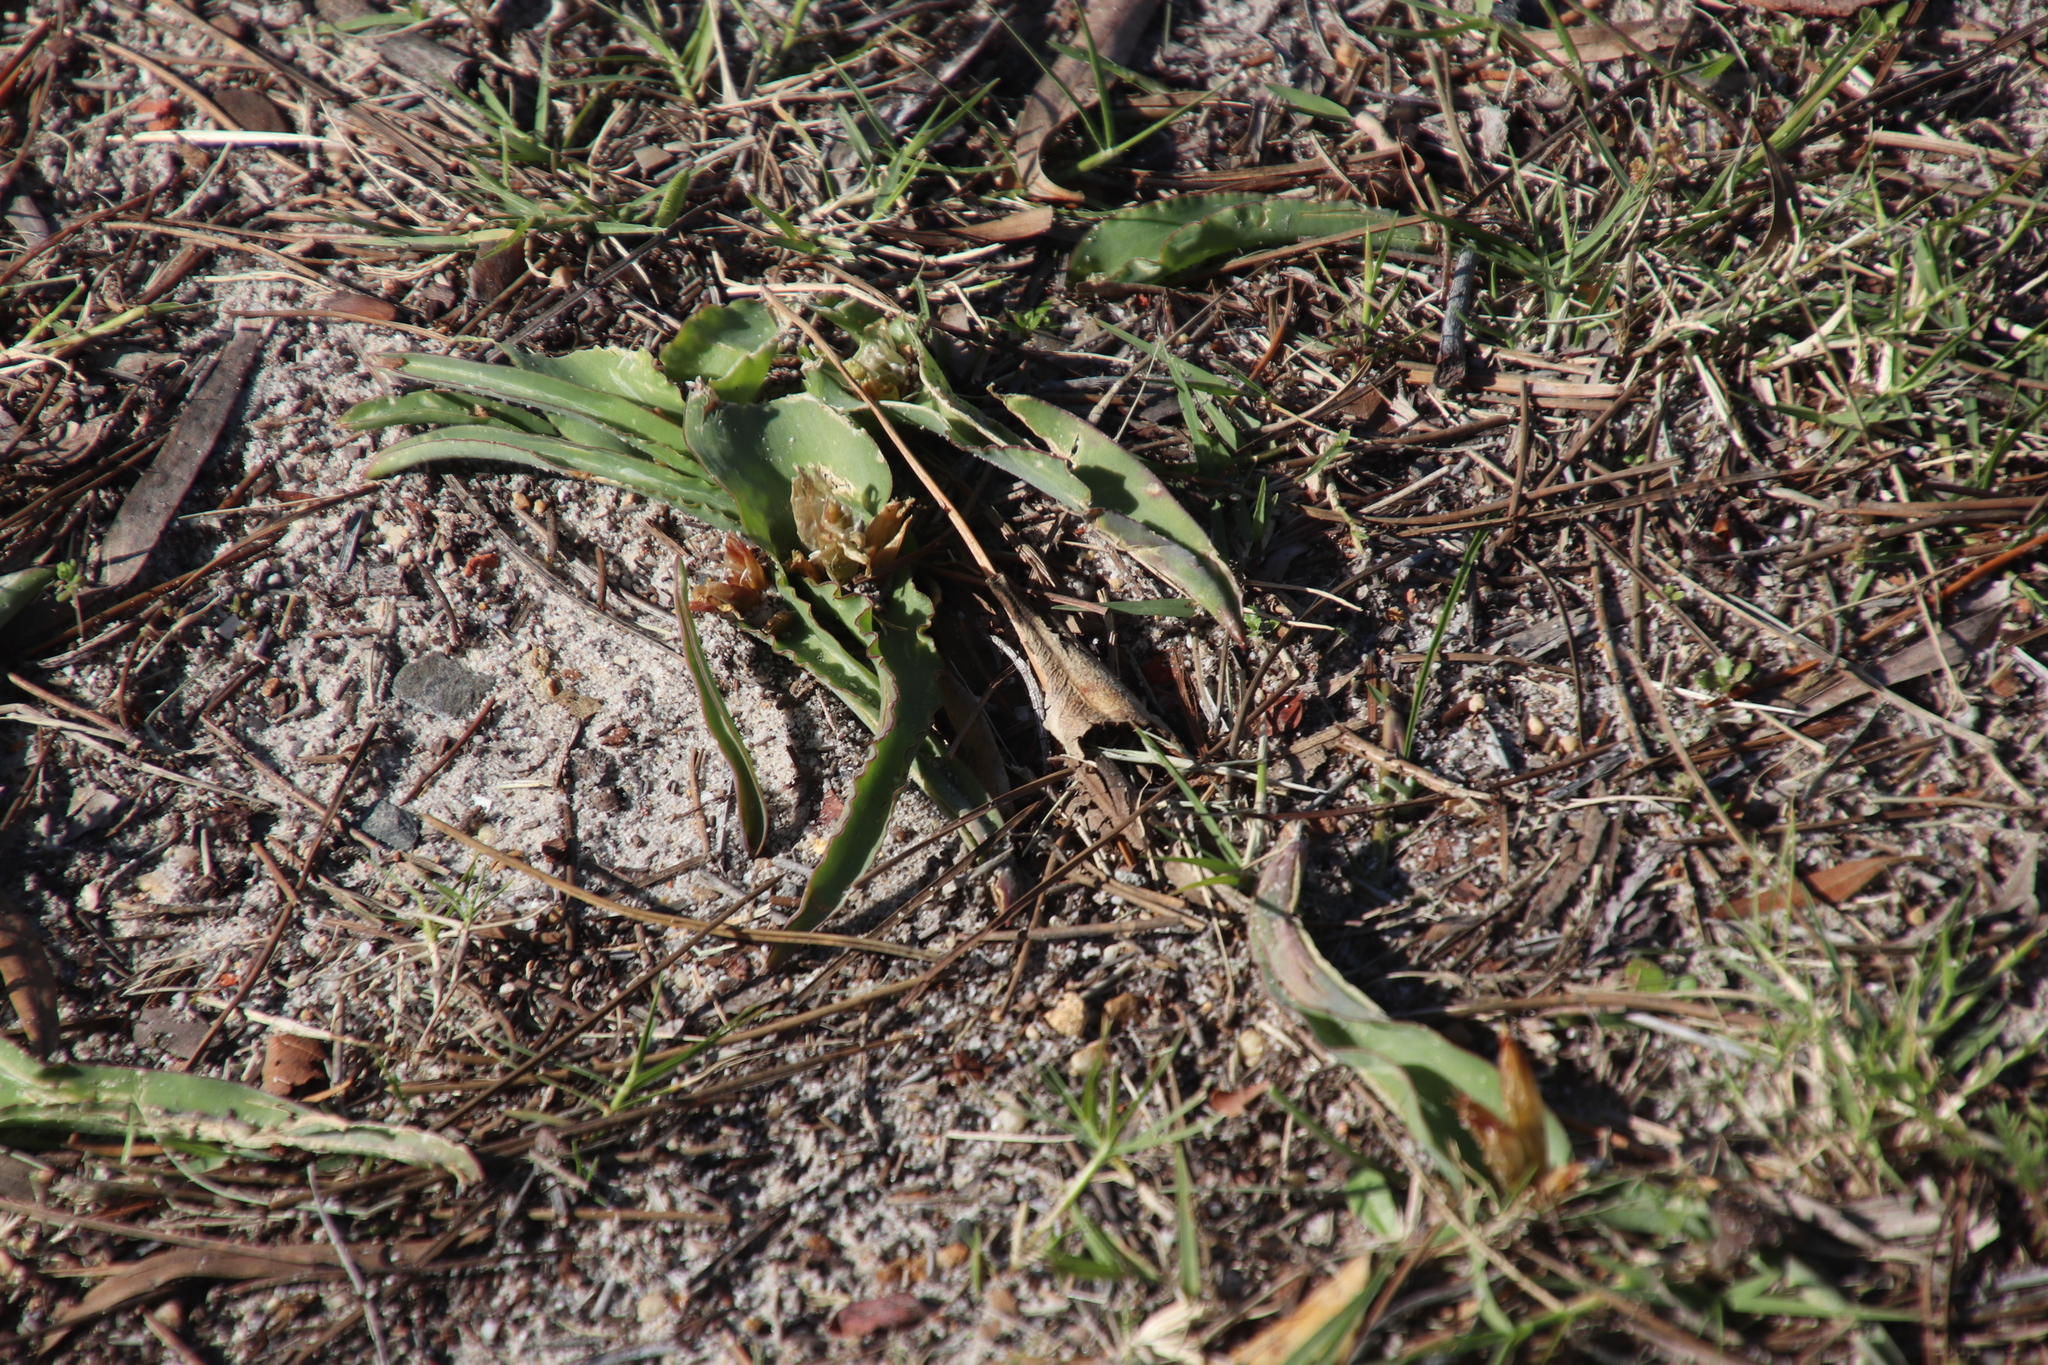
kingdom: Plantae
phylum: Tracheophyta
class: Liliopsida
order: Asparagales
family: Asparagaceae
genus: Lachenalia
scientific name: Lachenalia reflexa
